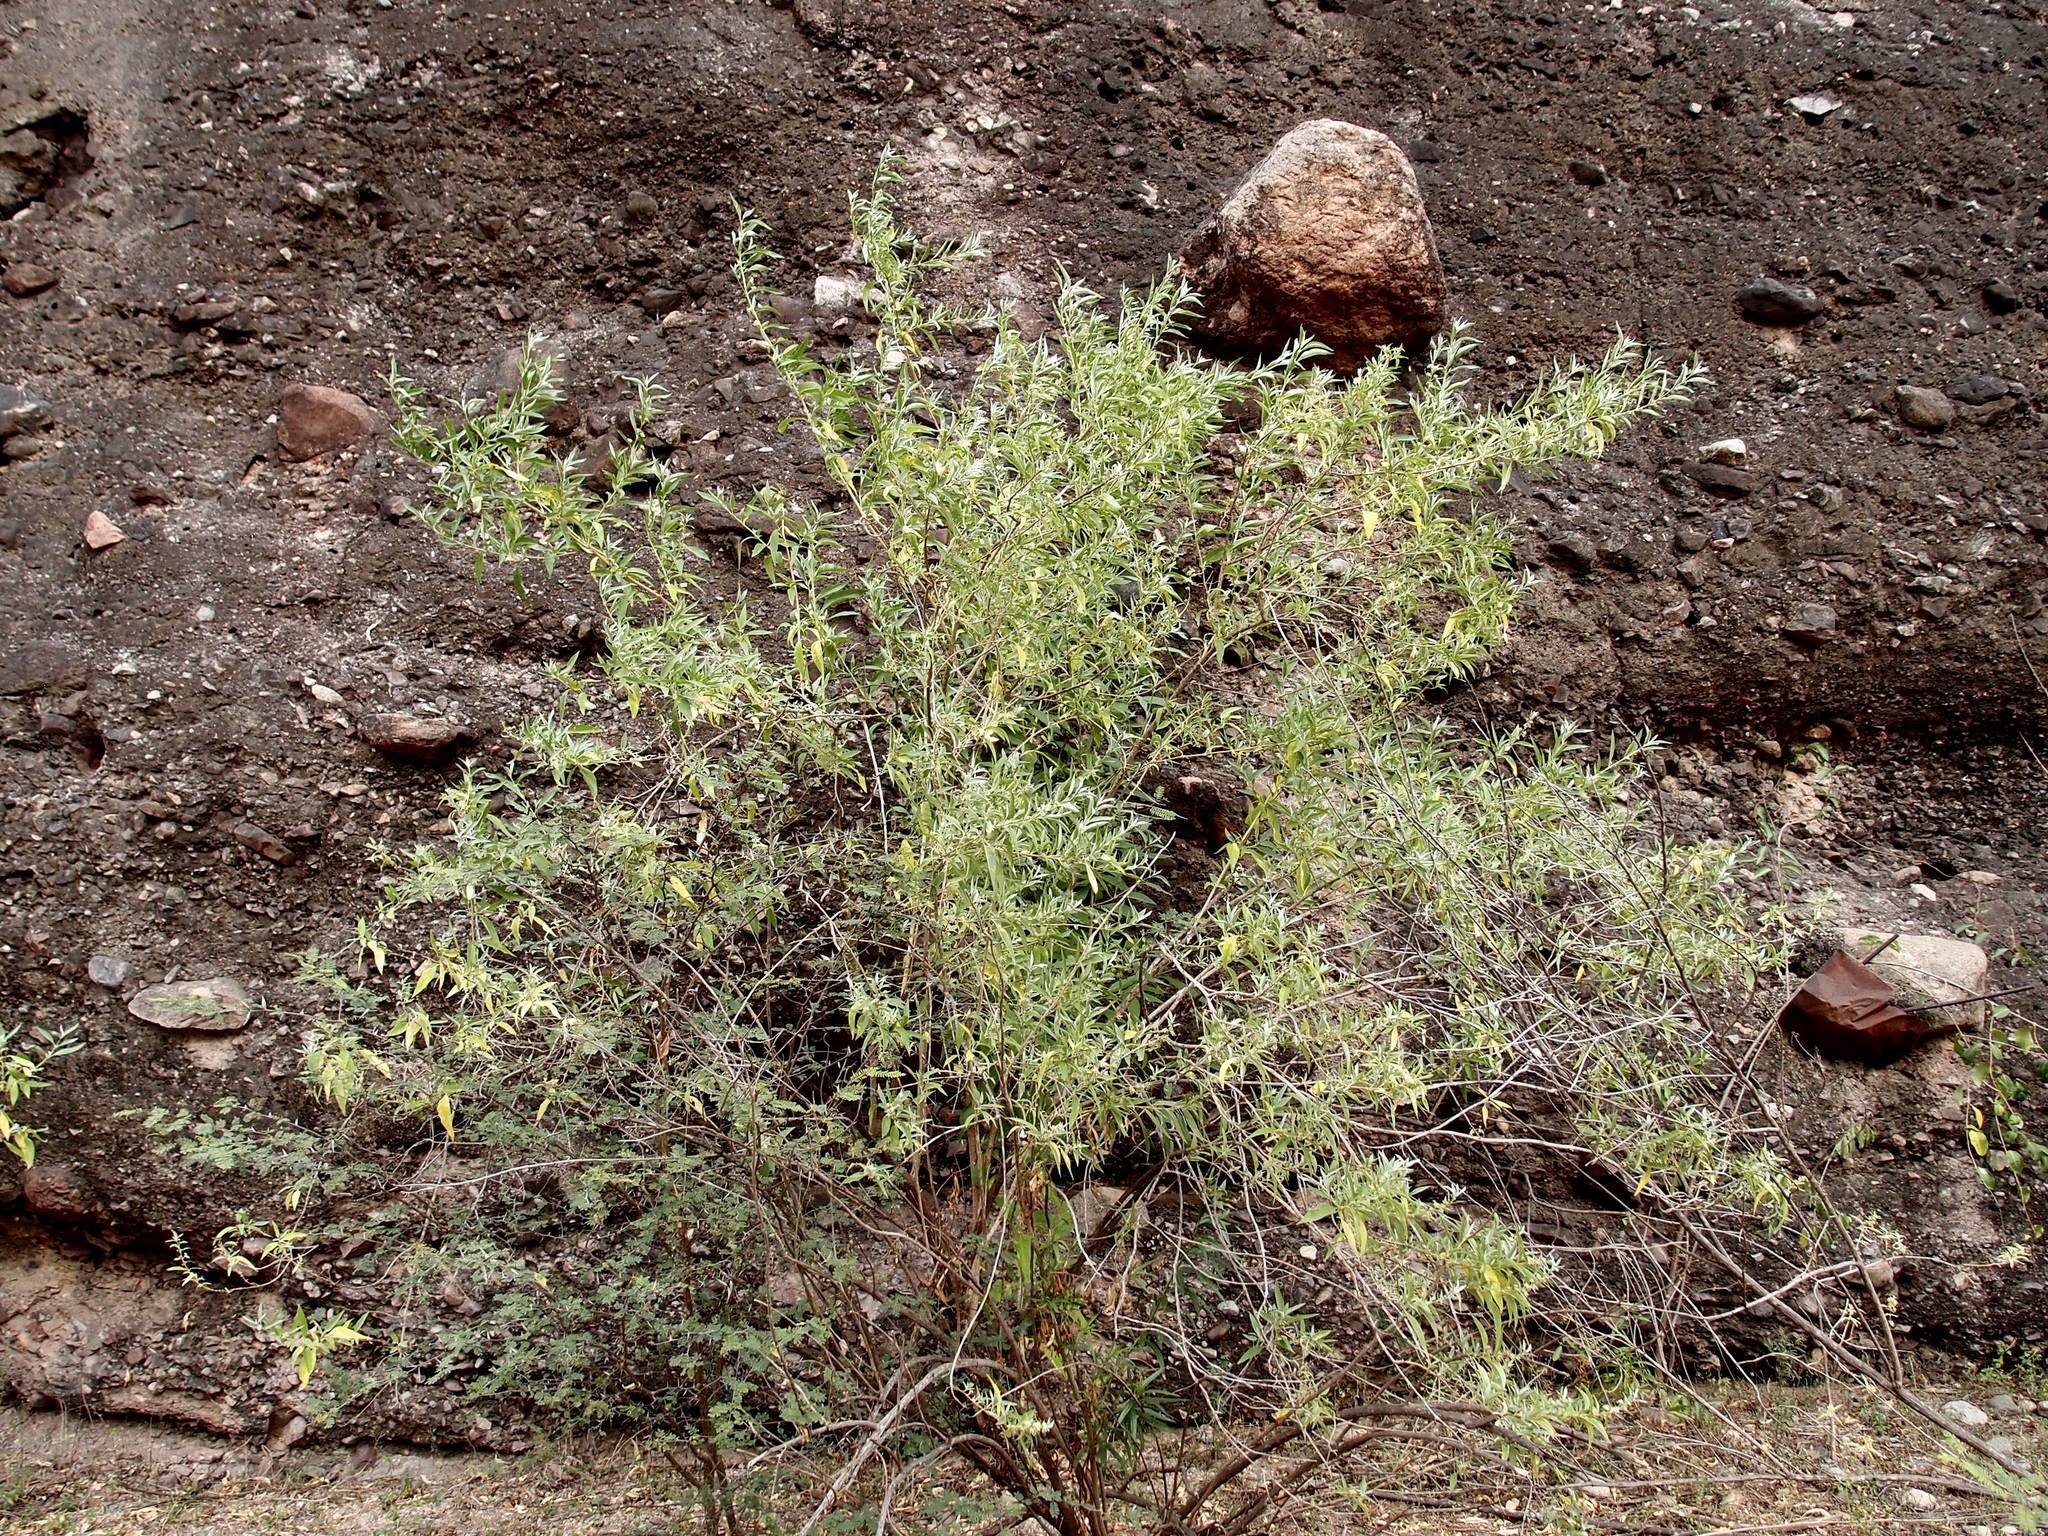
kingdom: Plantae
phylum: Tracheophyta
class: Magnoliopsida
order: Lamiales
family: Scrophulariaceae
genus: Buddleja
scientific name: Buddleja sessiliflora
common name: Rio grande butterfly-bush
